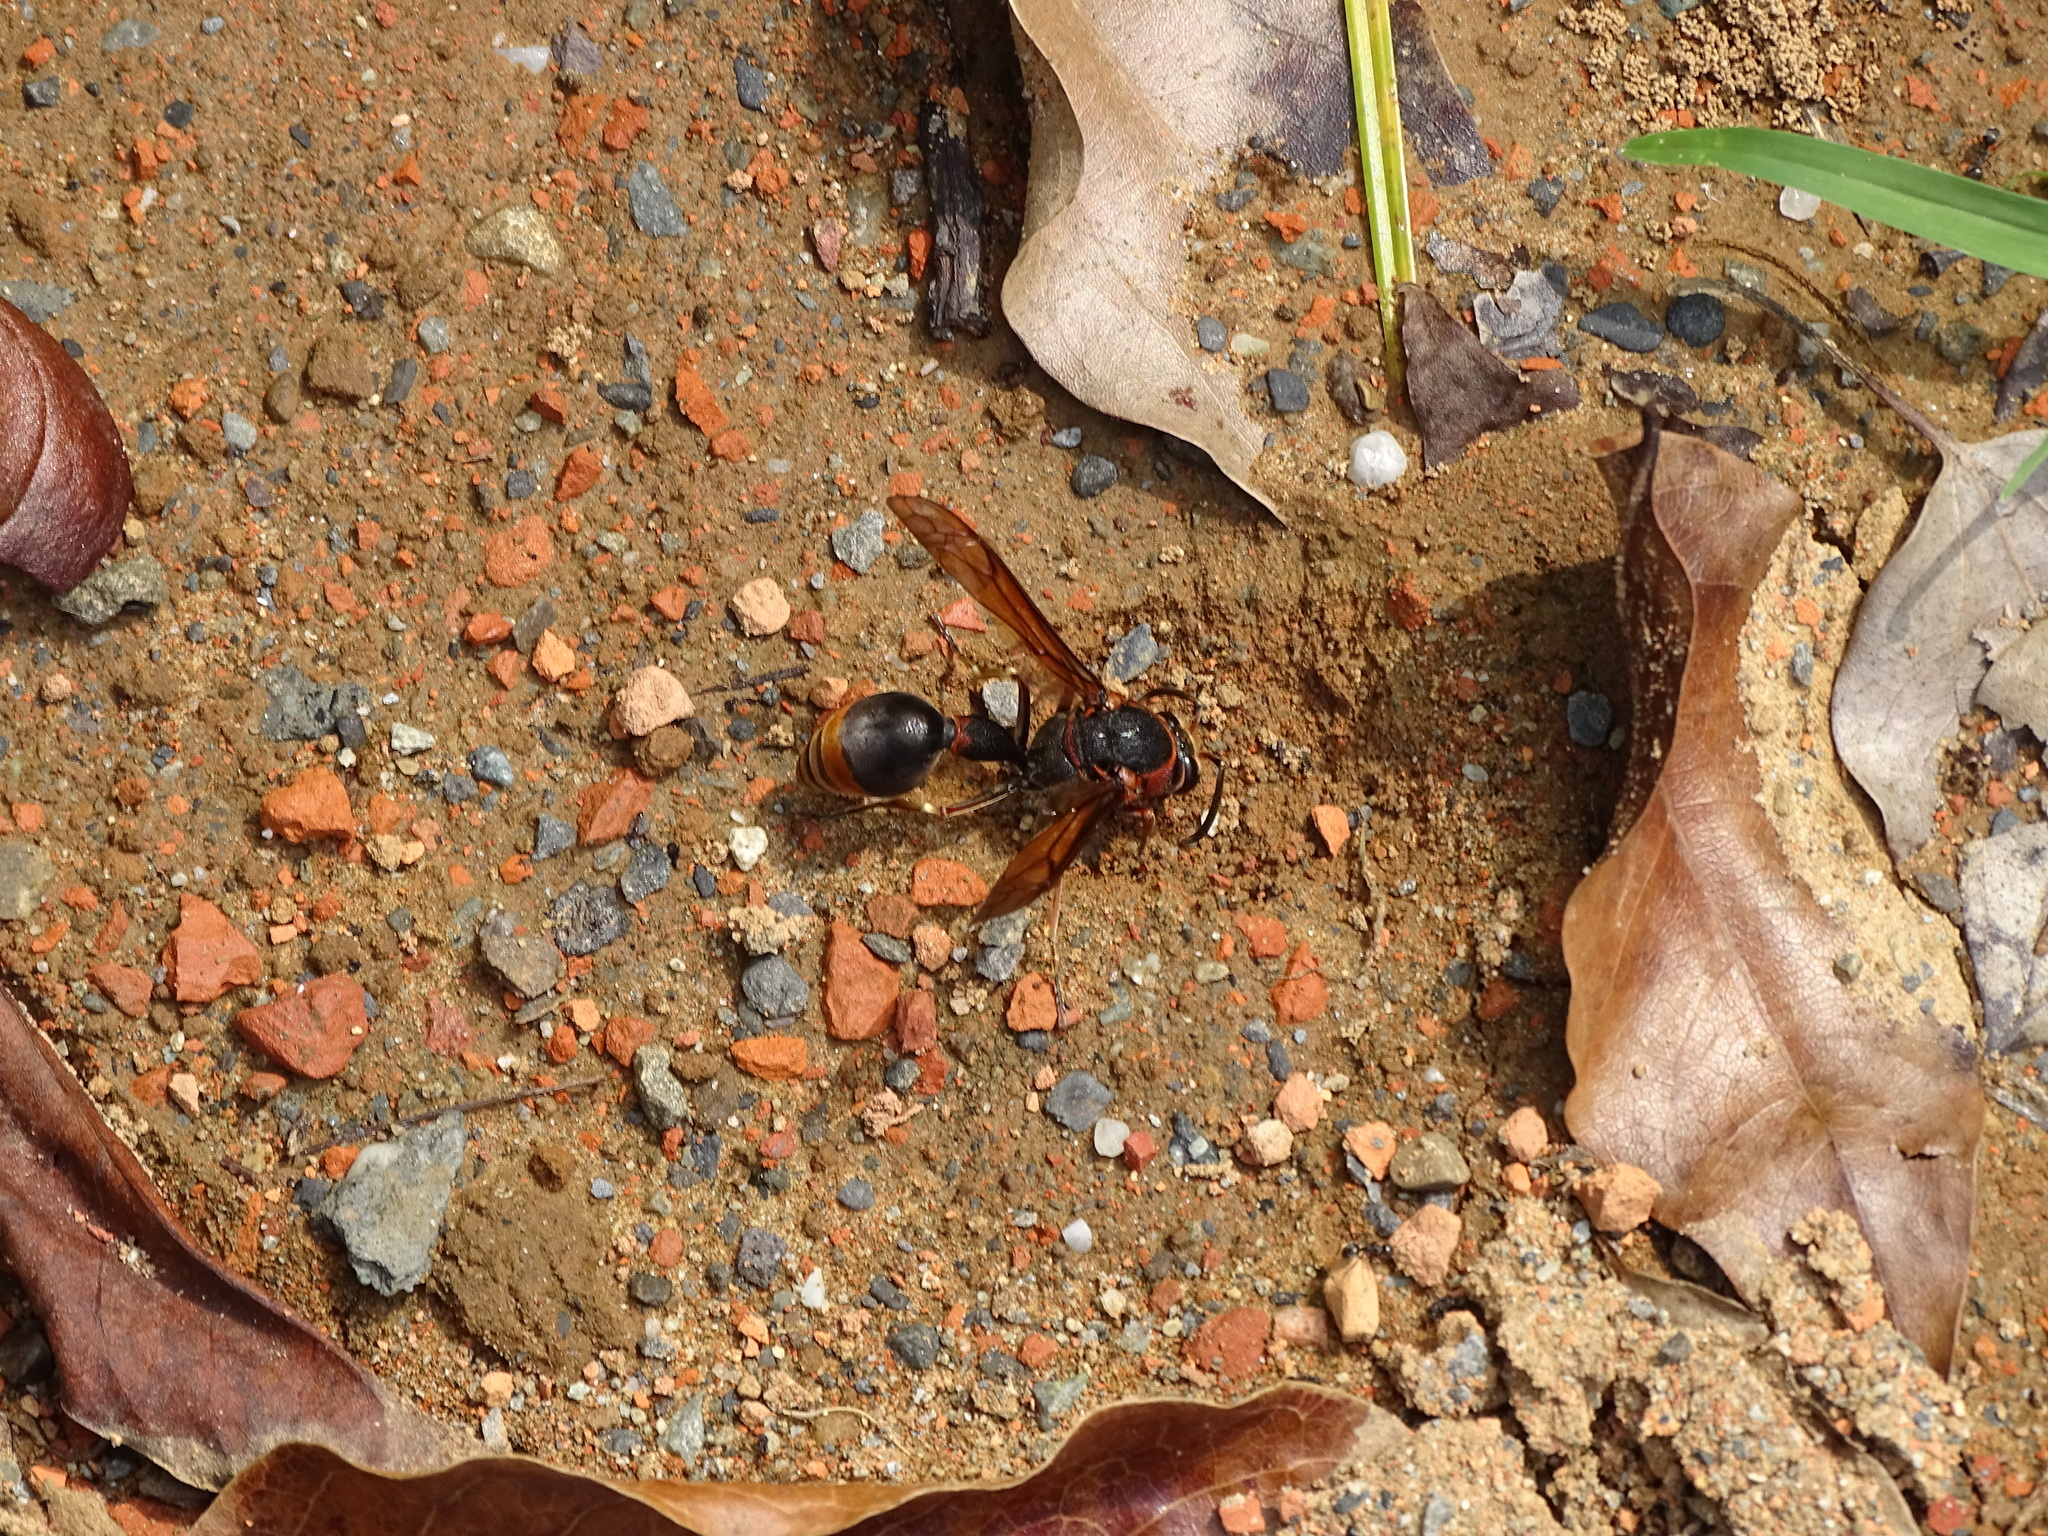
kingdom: Animalia
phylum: Arthropoda
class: Insecta
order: Hymenoptera
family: Eumenidae
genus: Oreumenes
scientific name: Oreumenes decoratus
